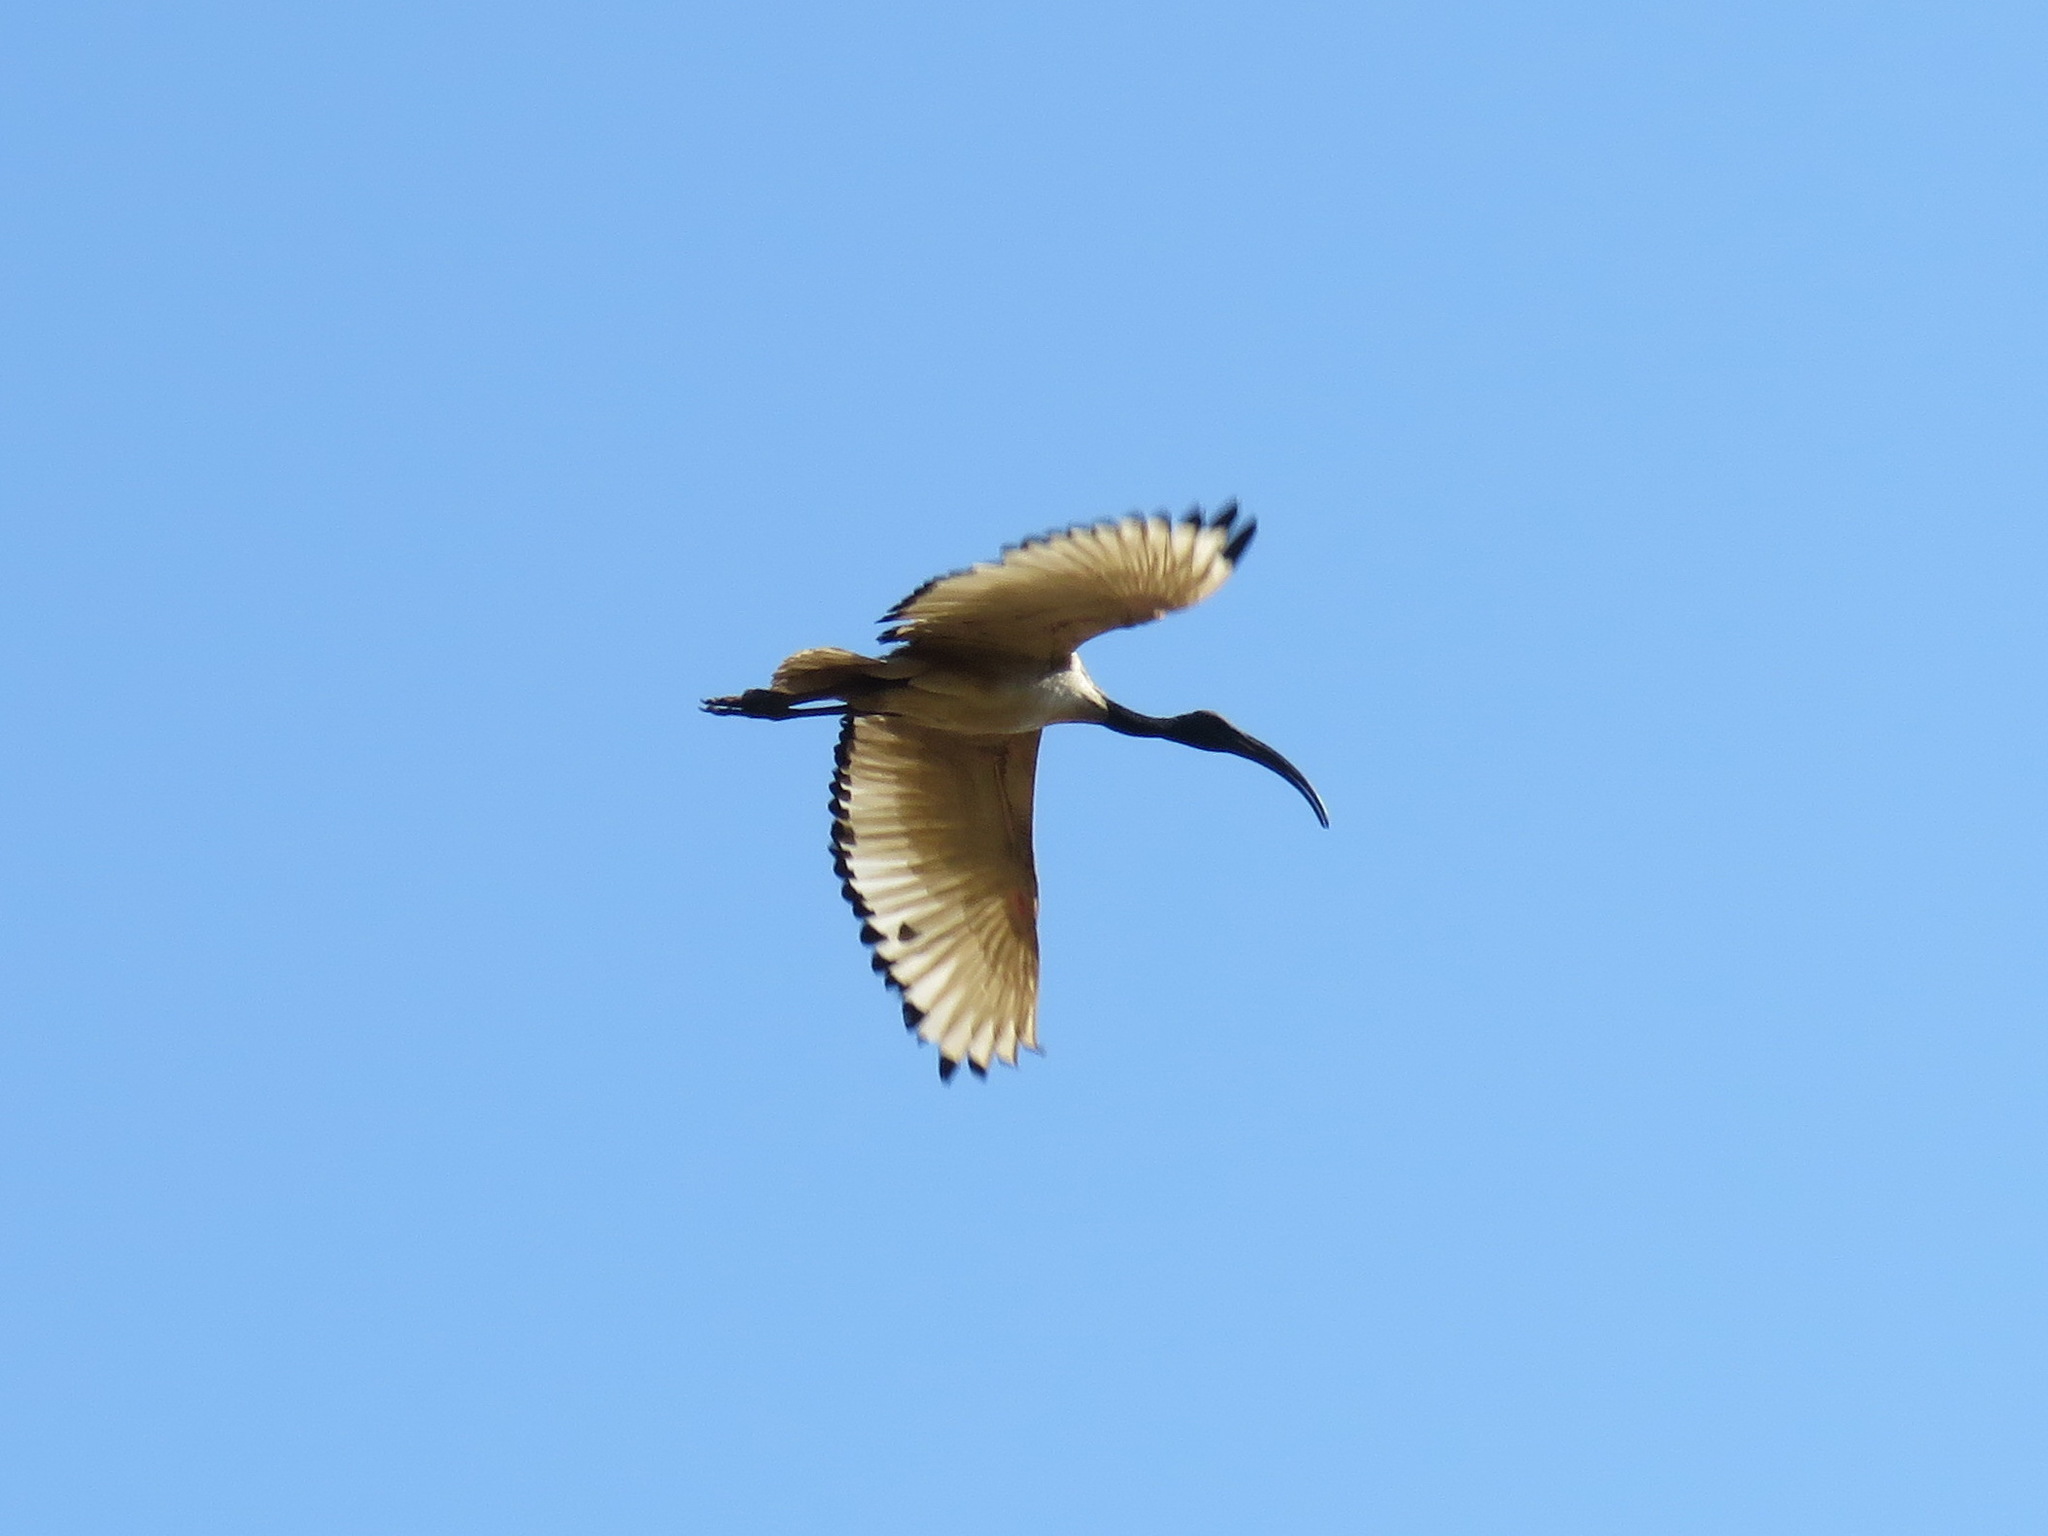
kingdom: Animalia
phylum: Chordata
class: Aves
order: Pelecaniformes
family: Threskiornithidae
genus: Threskiornis
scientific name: Threskiornis aethiopicus
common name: Sacred ibis
